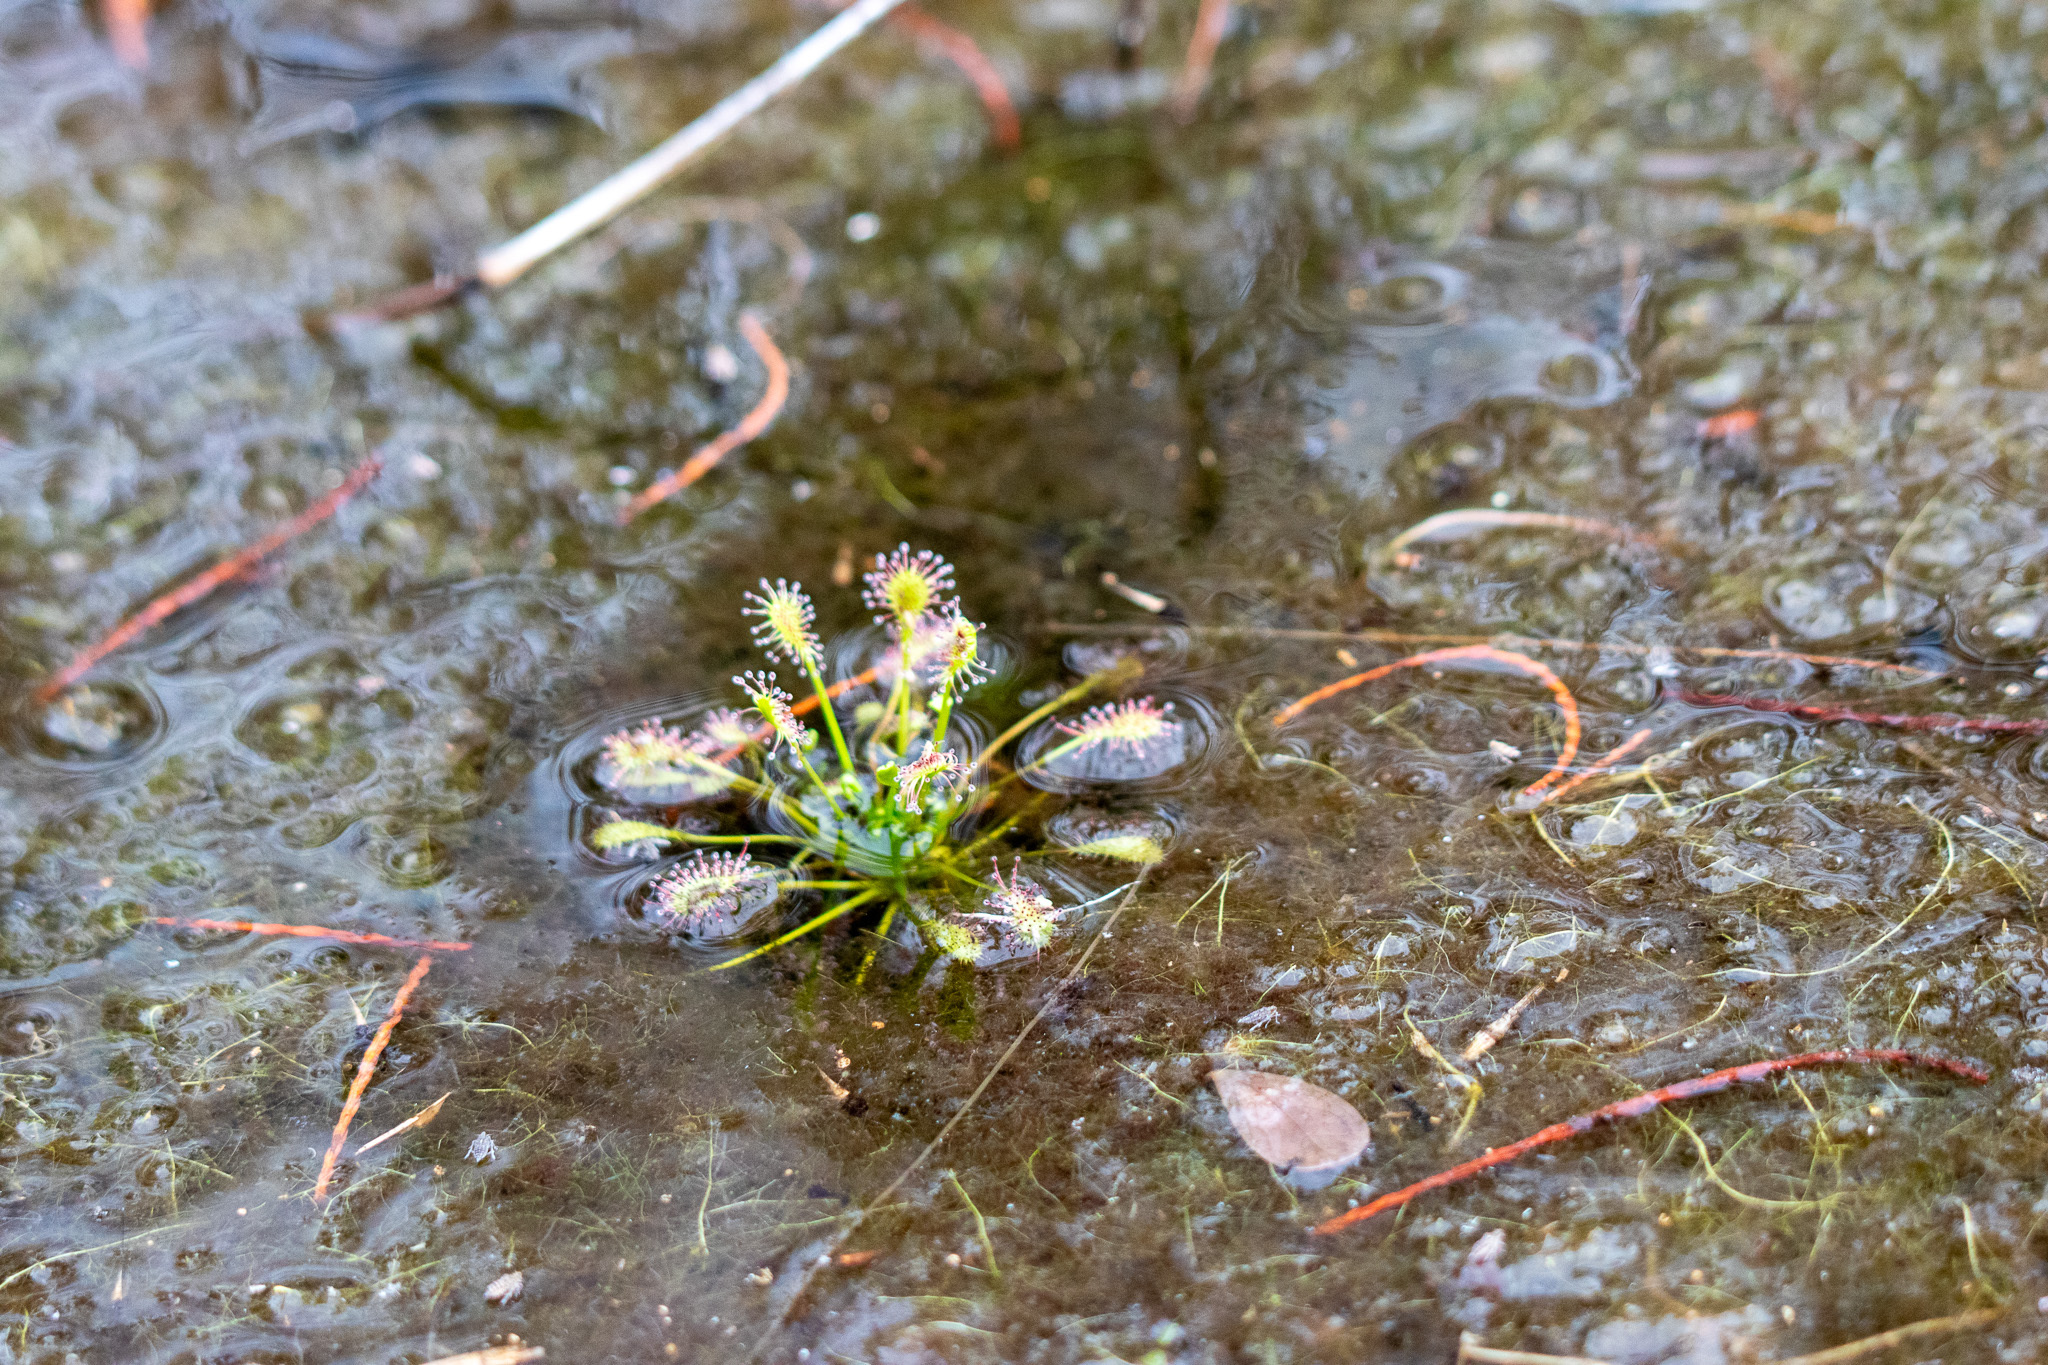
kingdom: Plantae
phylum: Tracheophyta
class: Magnoliopsida
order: Caryophyllales
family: Droseraceae
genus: Drosera
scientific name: Drosera intermedia
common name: Oblong-leaved sundew
